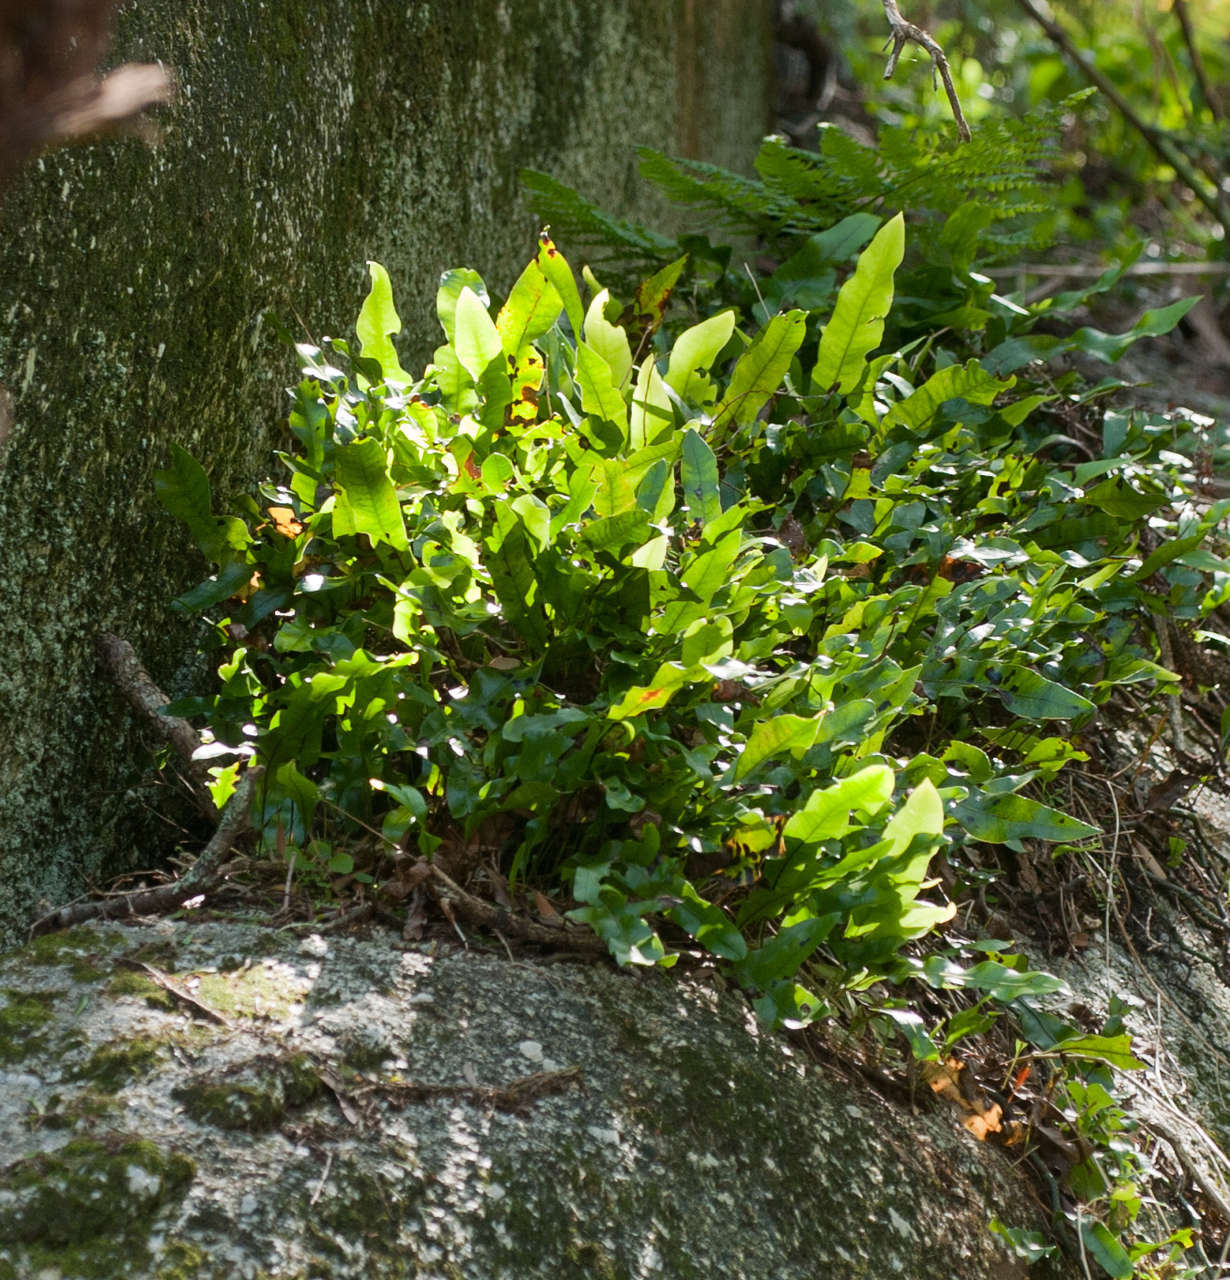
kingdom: Plantae
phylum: Tracheophyta
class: Polypodiopsida
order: Polypodiales
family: Polypodiaceae
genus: Lecanopteris
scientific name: Lecanopteris pustulata
